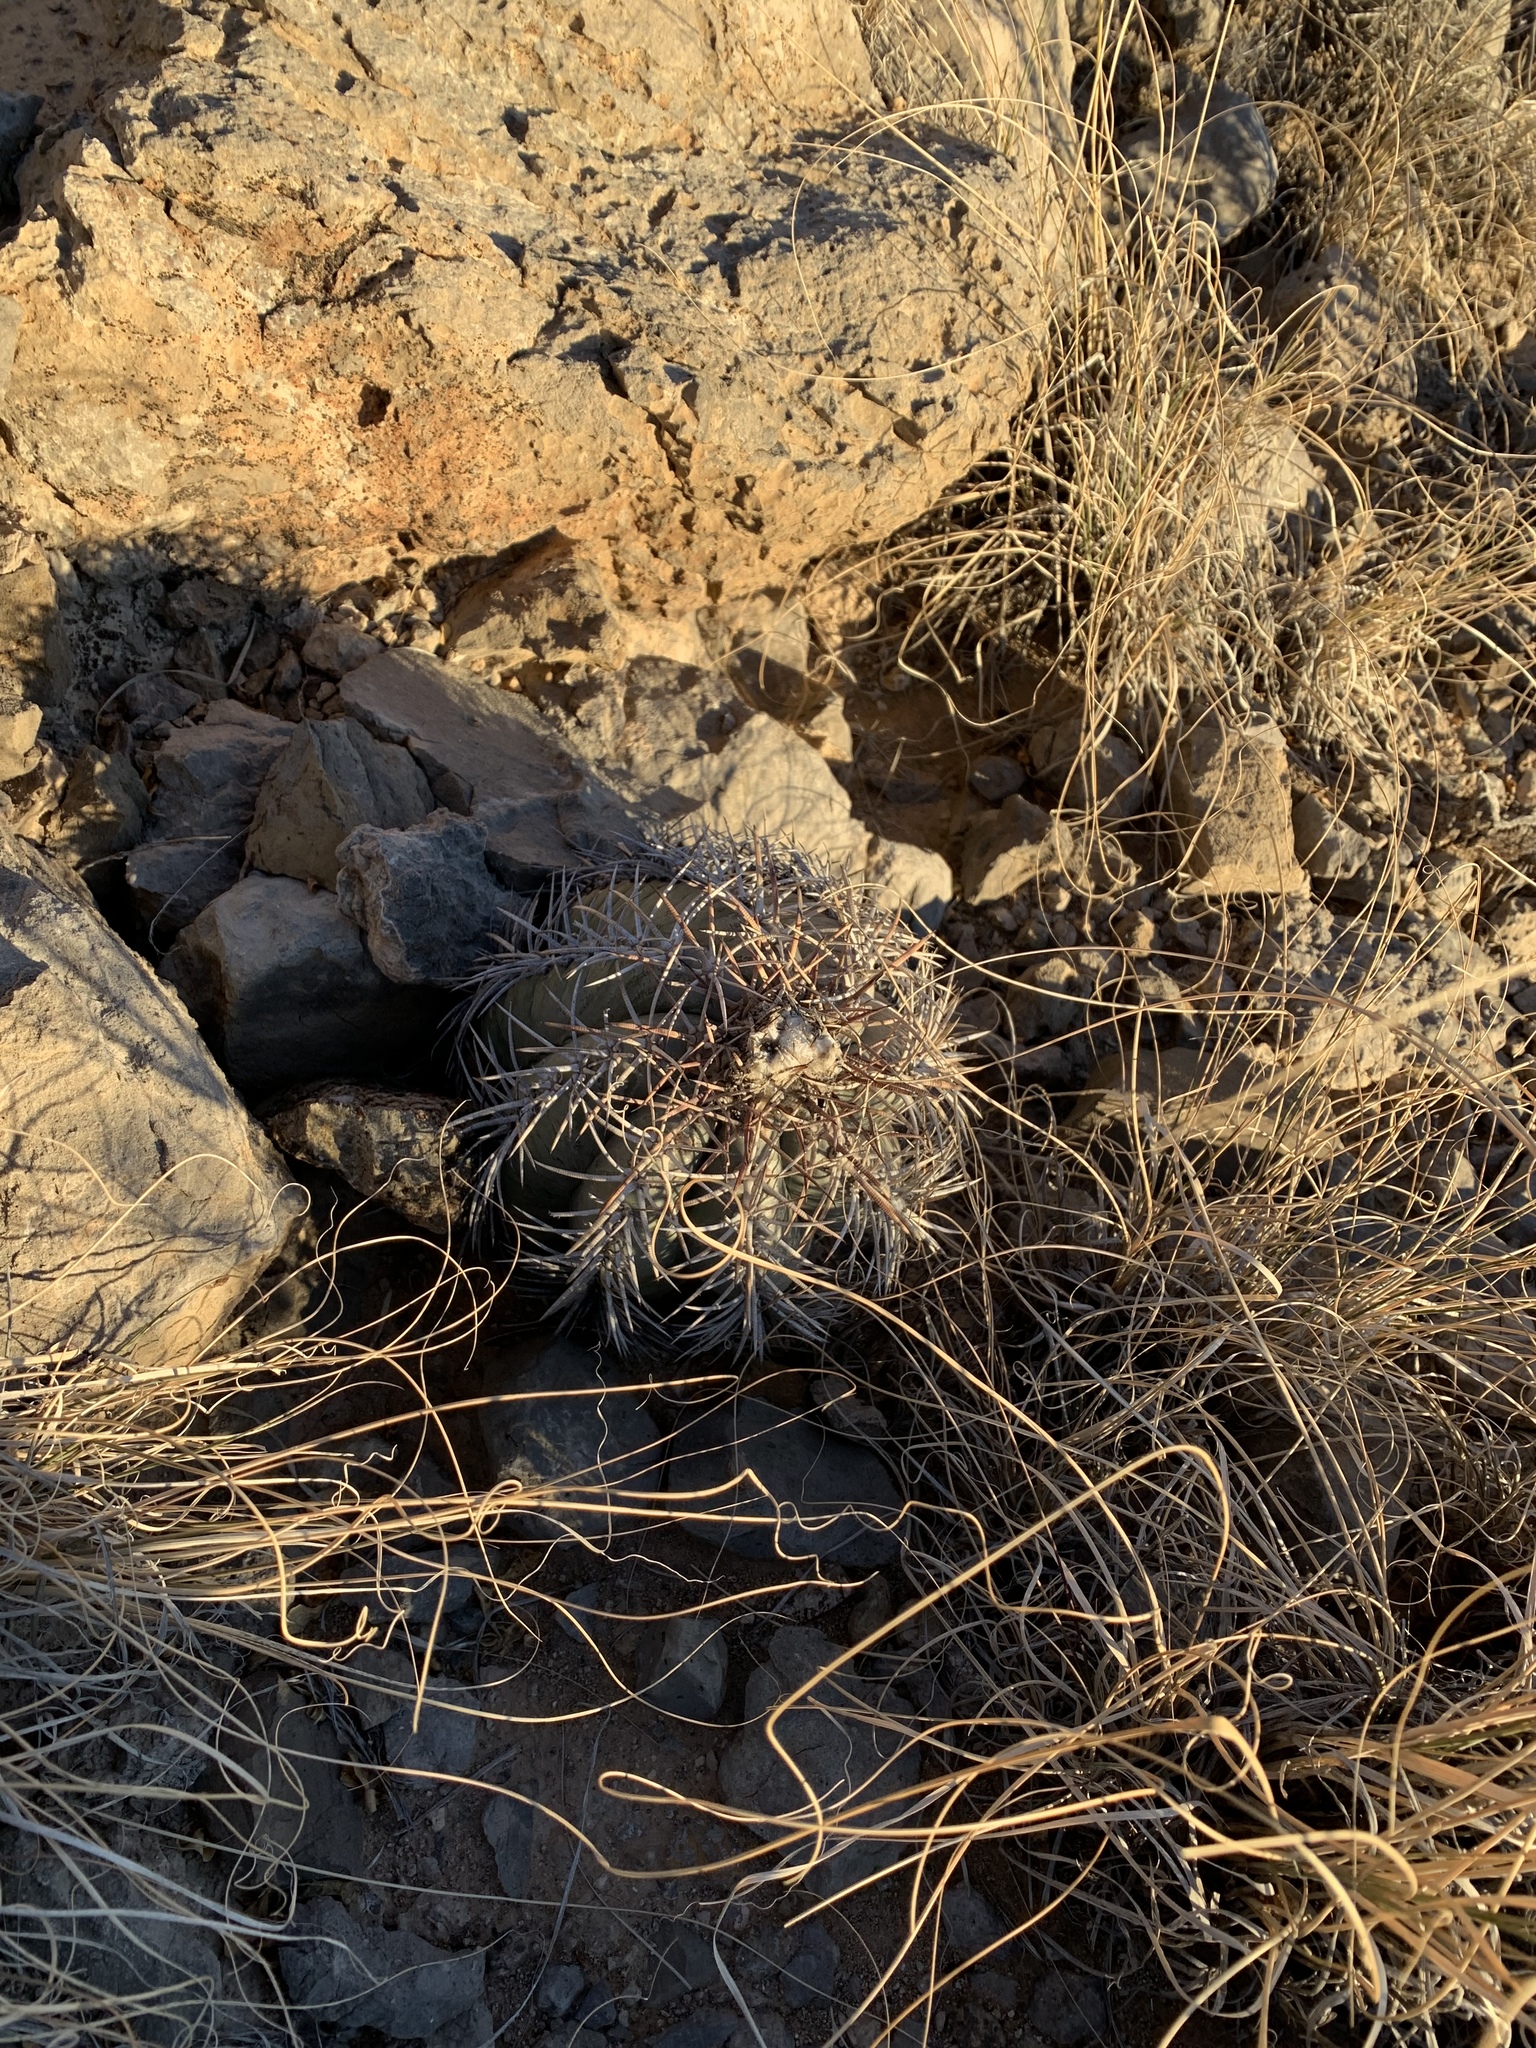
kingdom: Plantae
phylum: Tracheophyta
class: Magnoliopsida
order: Caryophyllales
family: Cactaceae
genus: Echinocactus
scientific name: Echinocactus horizonthalonius
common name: Devilshead
